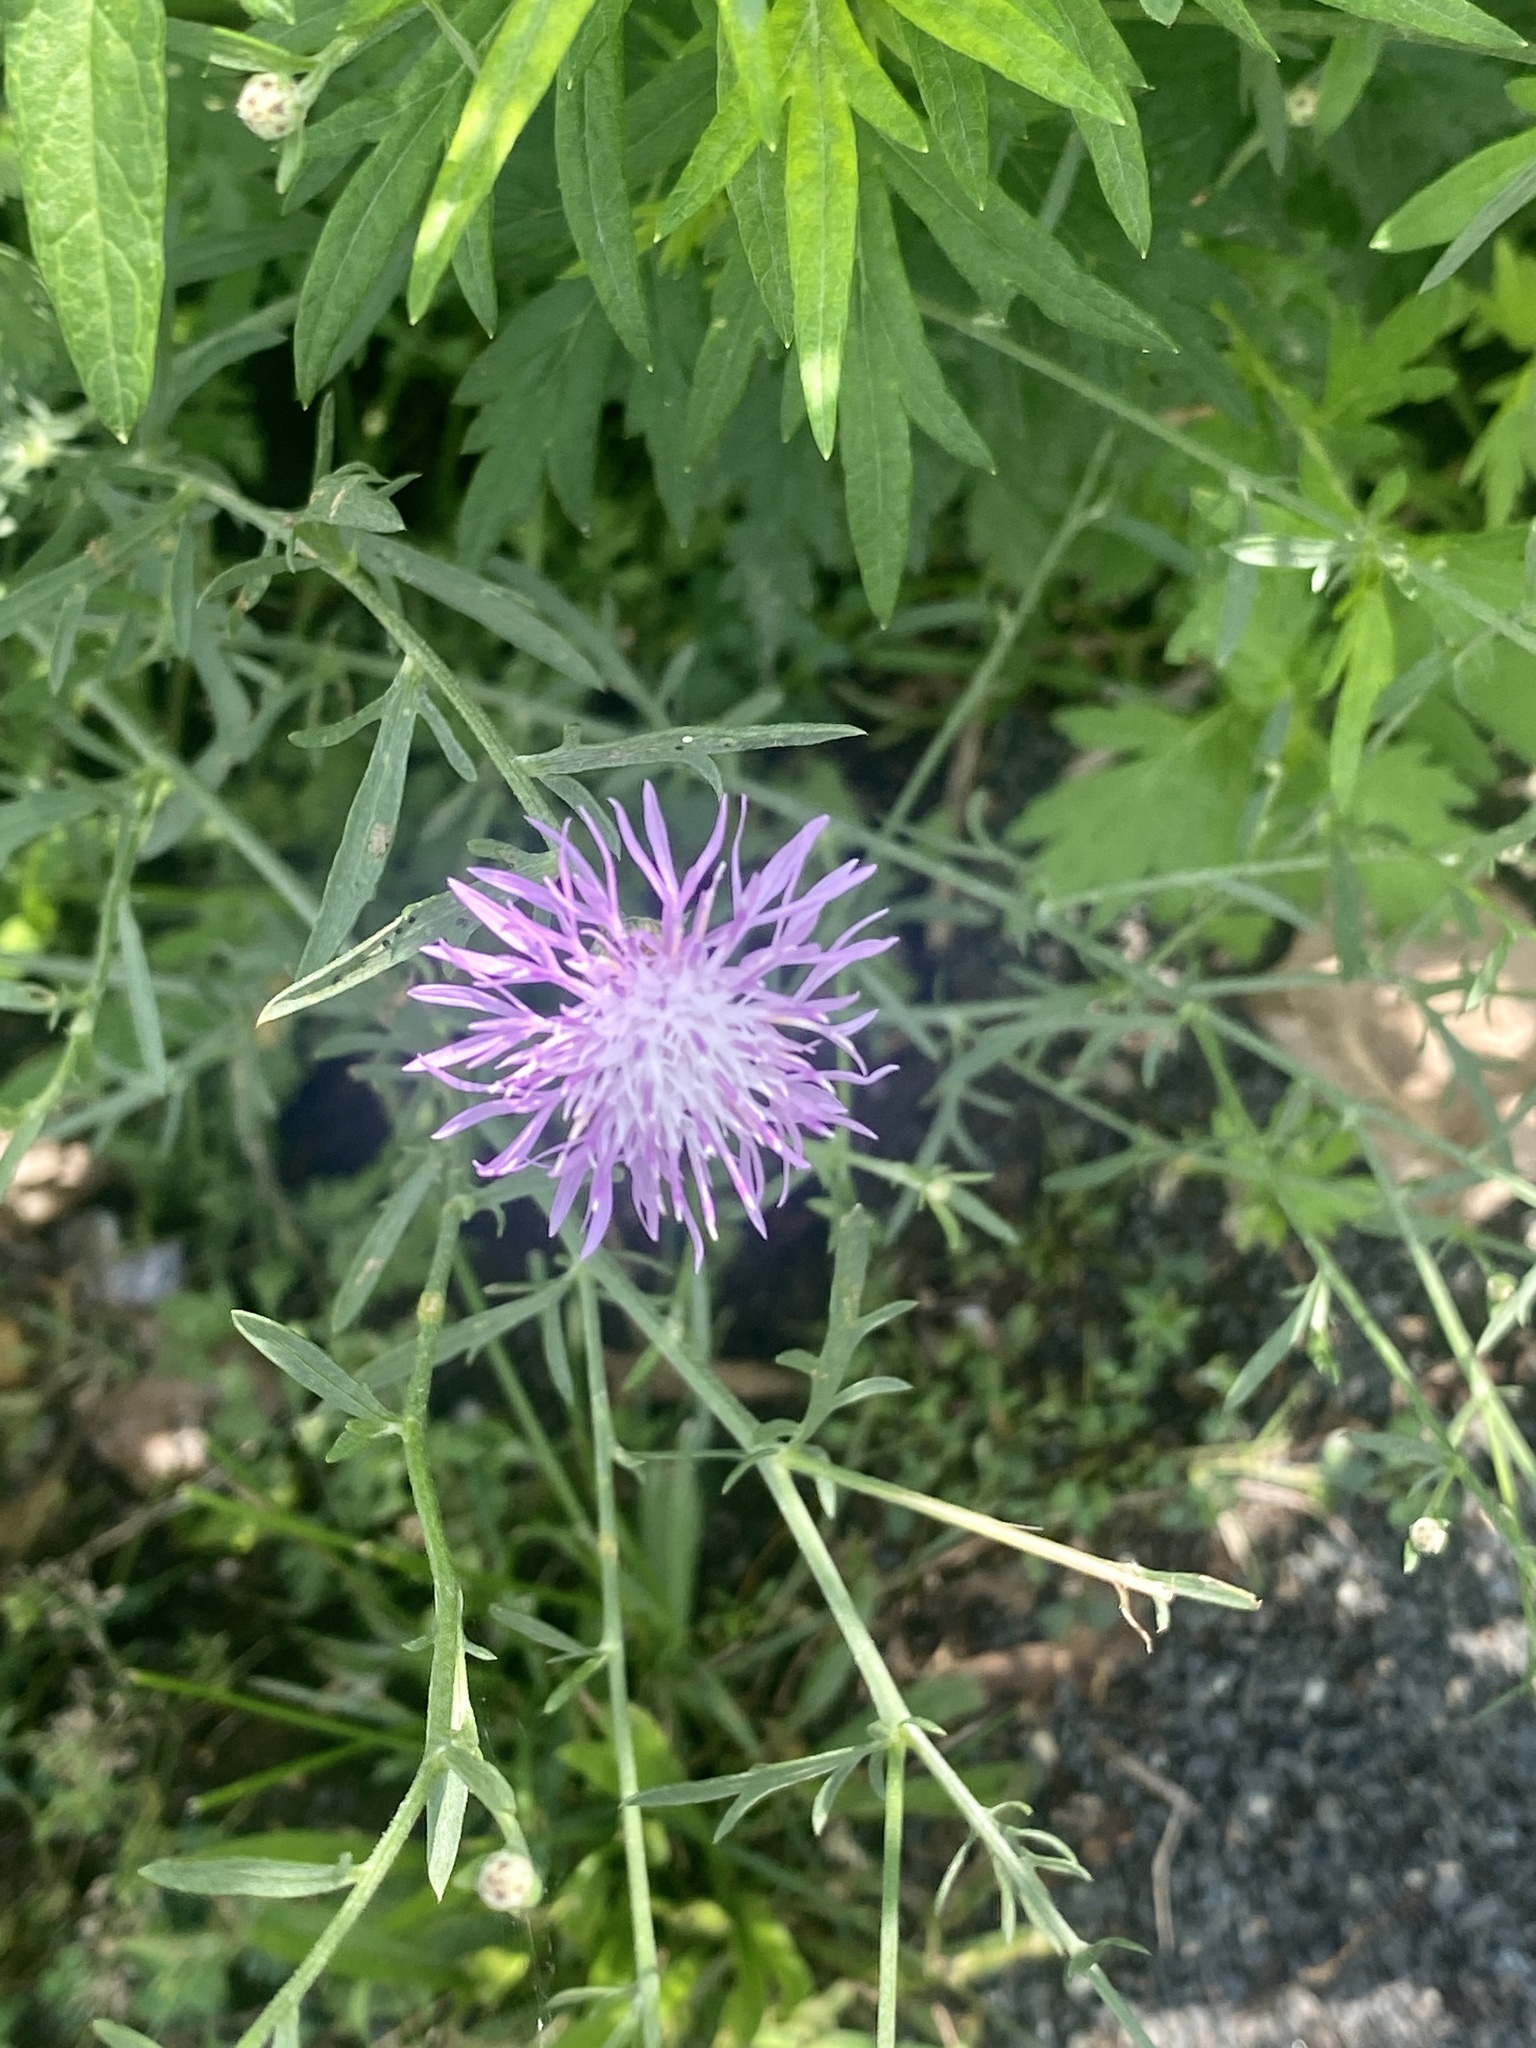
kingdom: Plantae
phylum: Tracheophyta
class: Magnoliopsida
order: Asterales
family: Asteraceae
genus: Centaurea
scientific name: Centaurea stoebe
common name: Spotted knapweed
